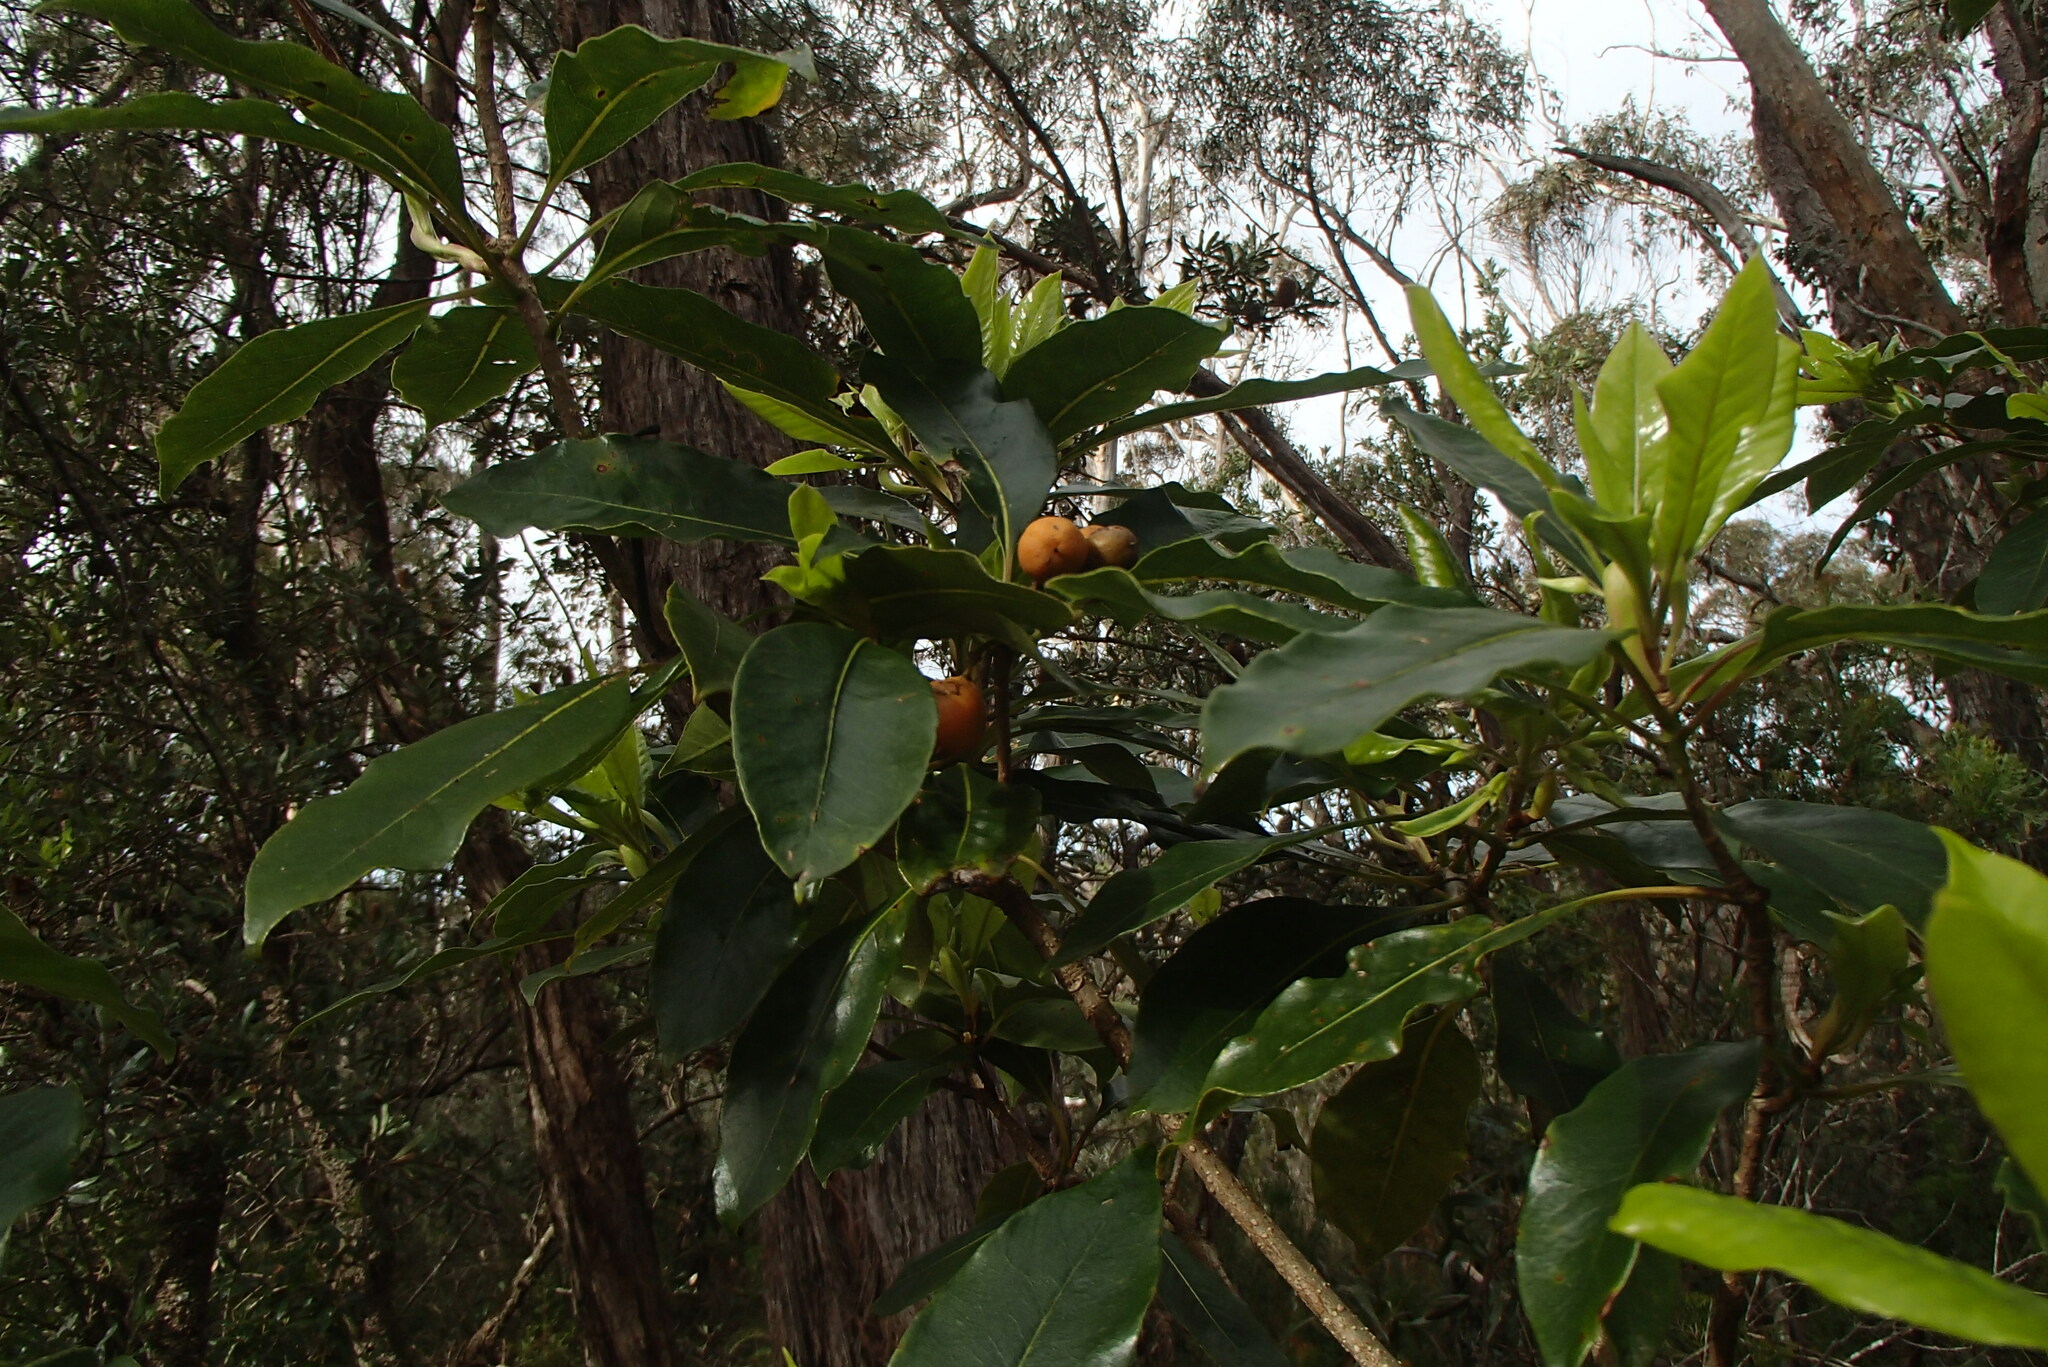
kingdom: Plantae
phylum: Tracheophyta
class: Magnoliopsida
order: Apiales
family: Pittosporaceae
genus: Pittosporum
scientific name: Pittosporum undulatum
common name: Australian cheesewood
